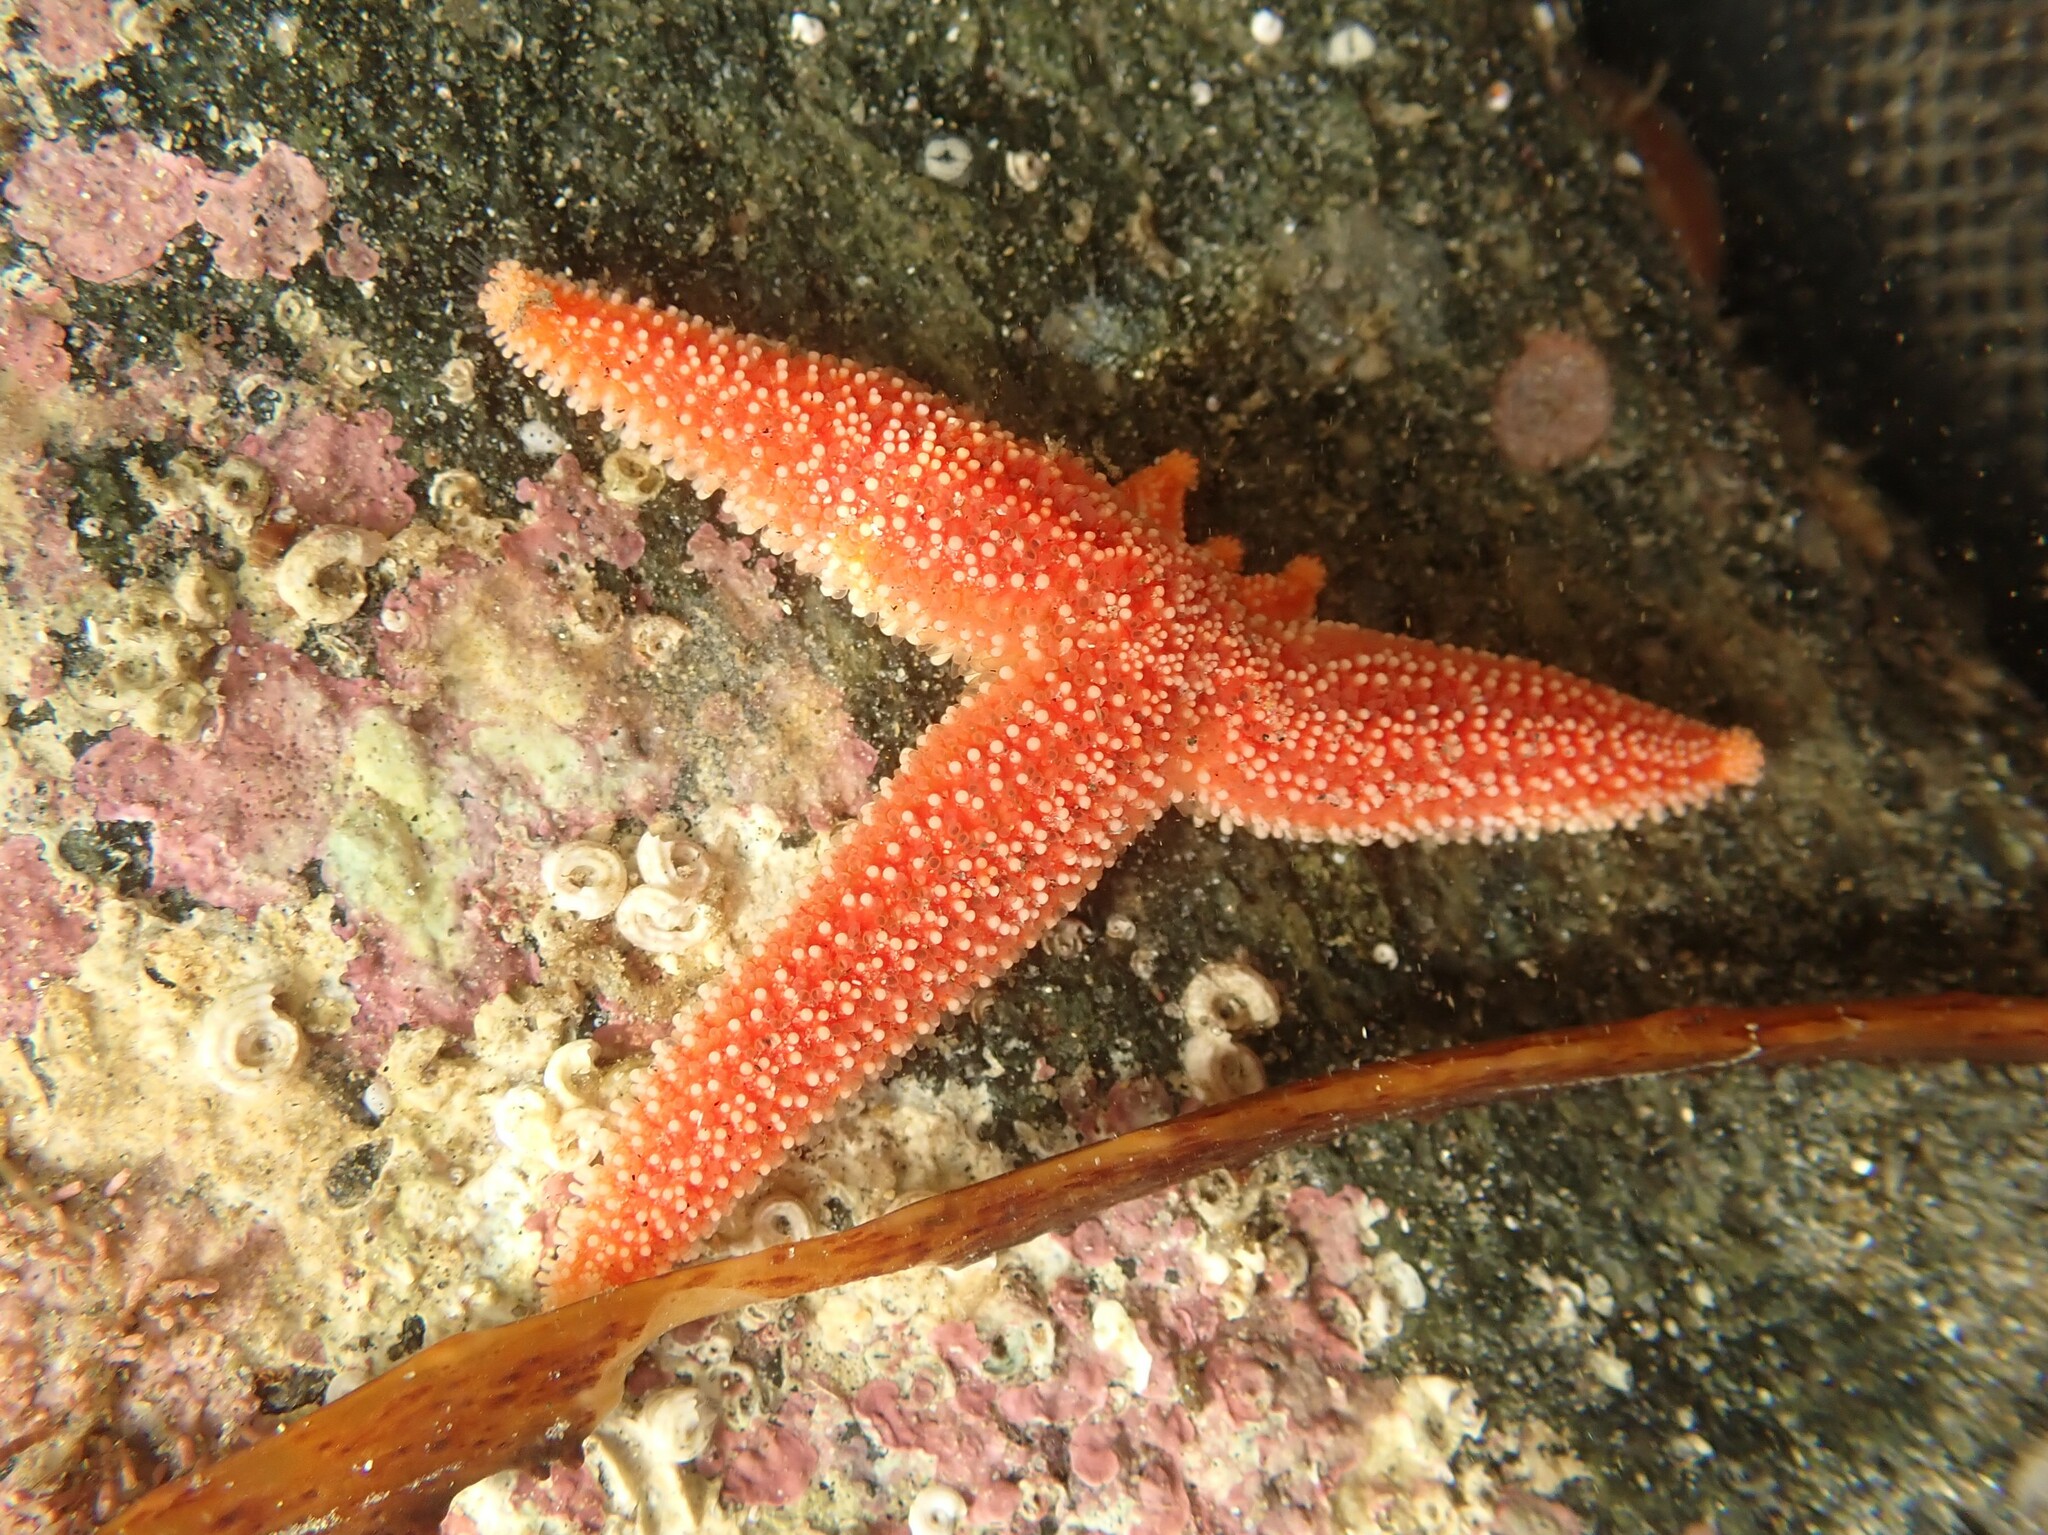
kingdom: Animalia
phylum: Echinodermata
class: Asteroidea
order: Forcipulatida
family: Stichasteridae
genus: Allostichaster
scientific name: Allostichaster insignis
